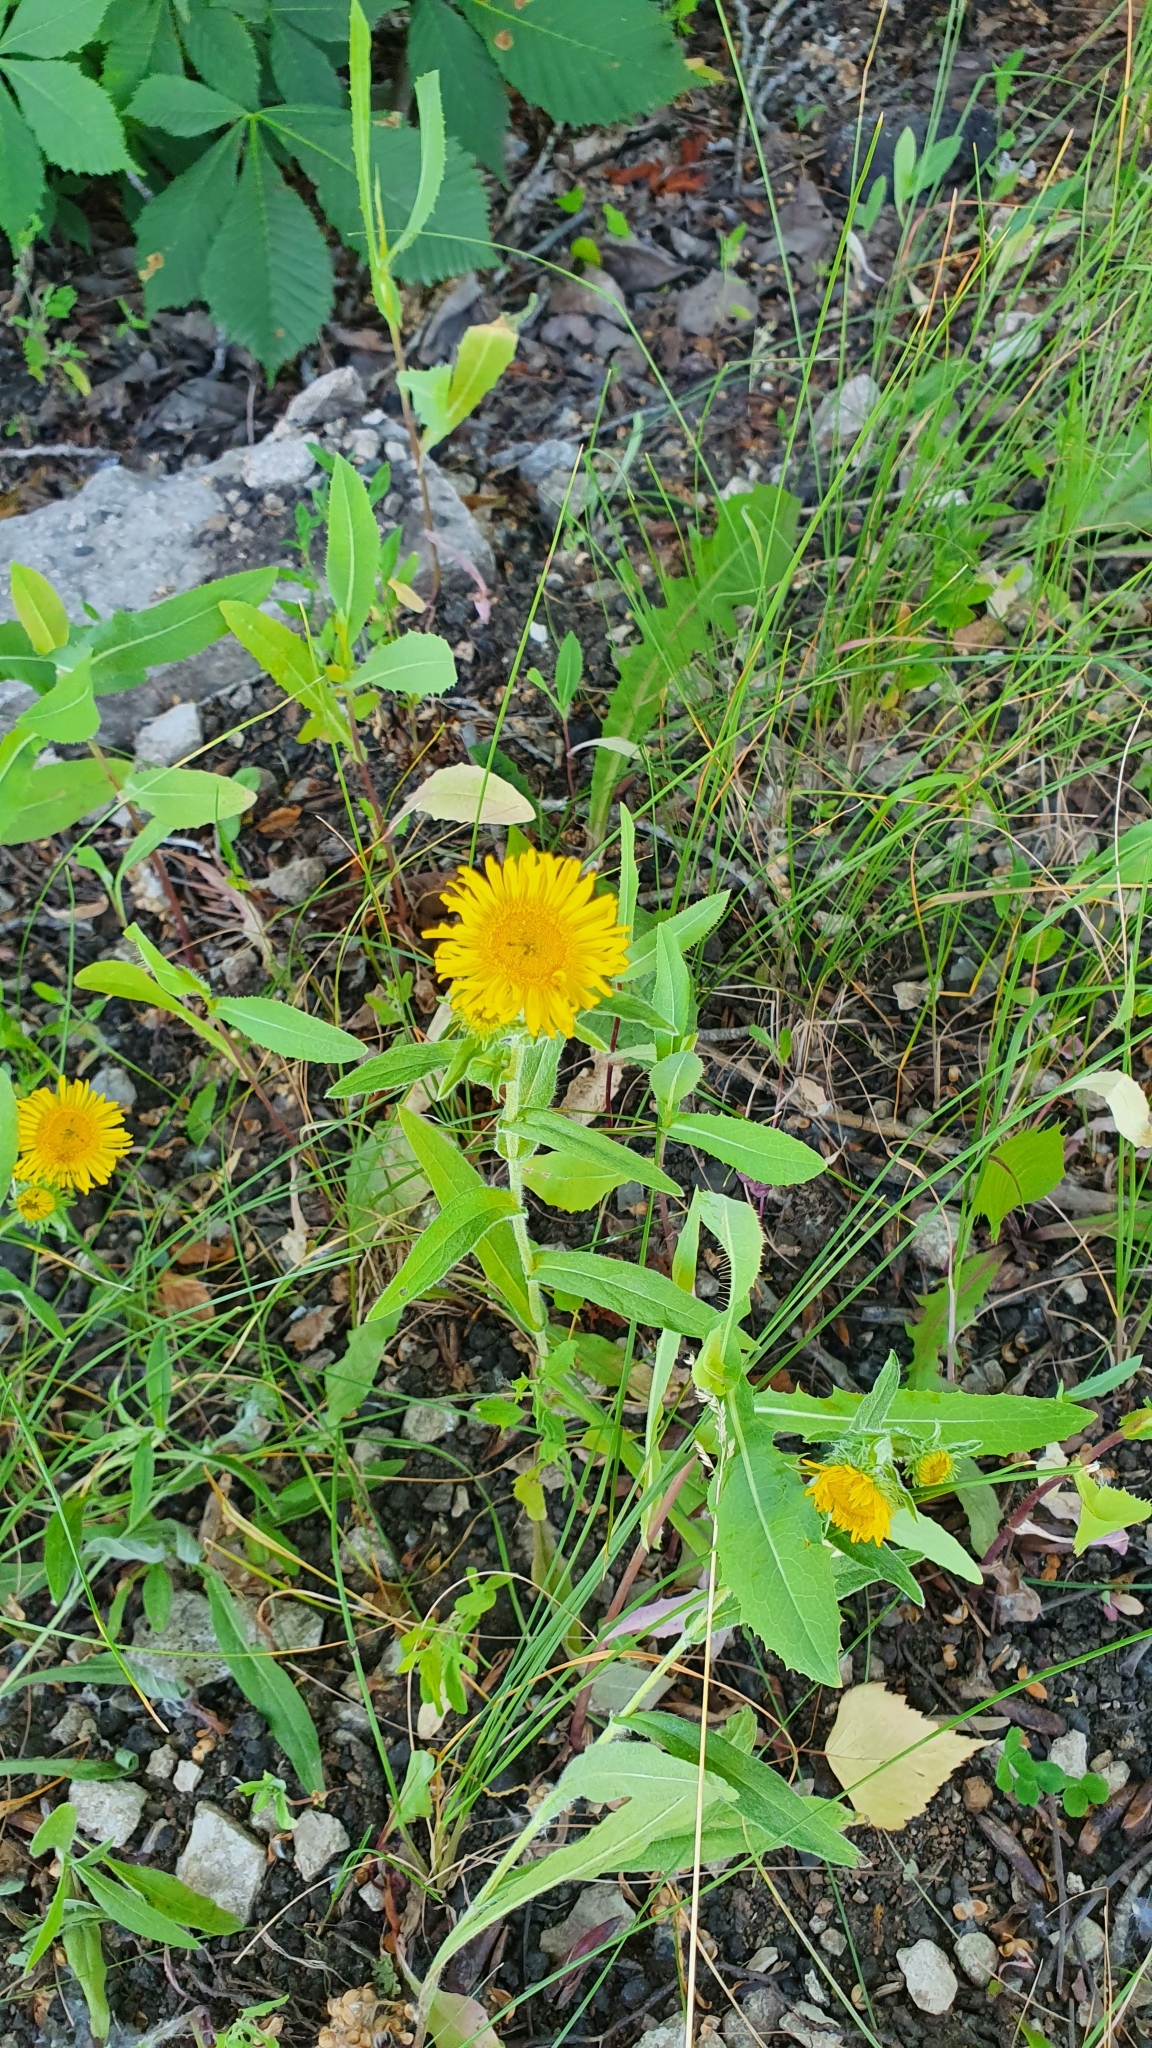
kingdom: Plantae
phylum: Tracheophyta
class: Magnoliopsida
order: Asterales
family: Asteraceae
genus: Pentanema
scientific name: Pentanema britannicum
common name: British elecampane
